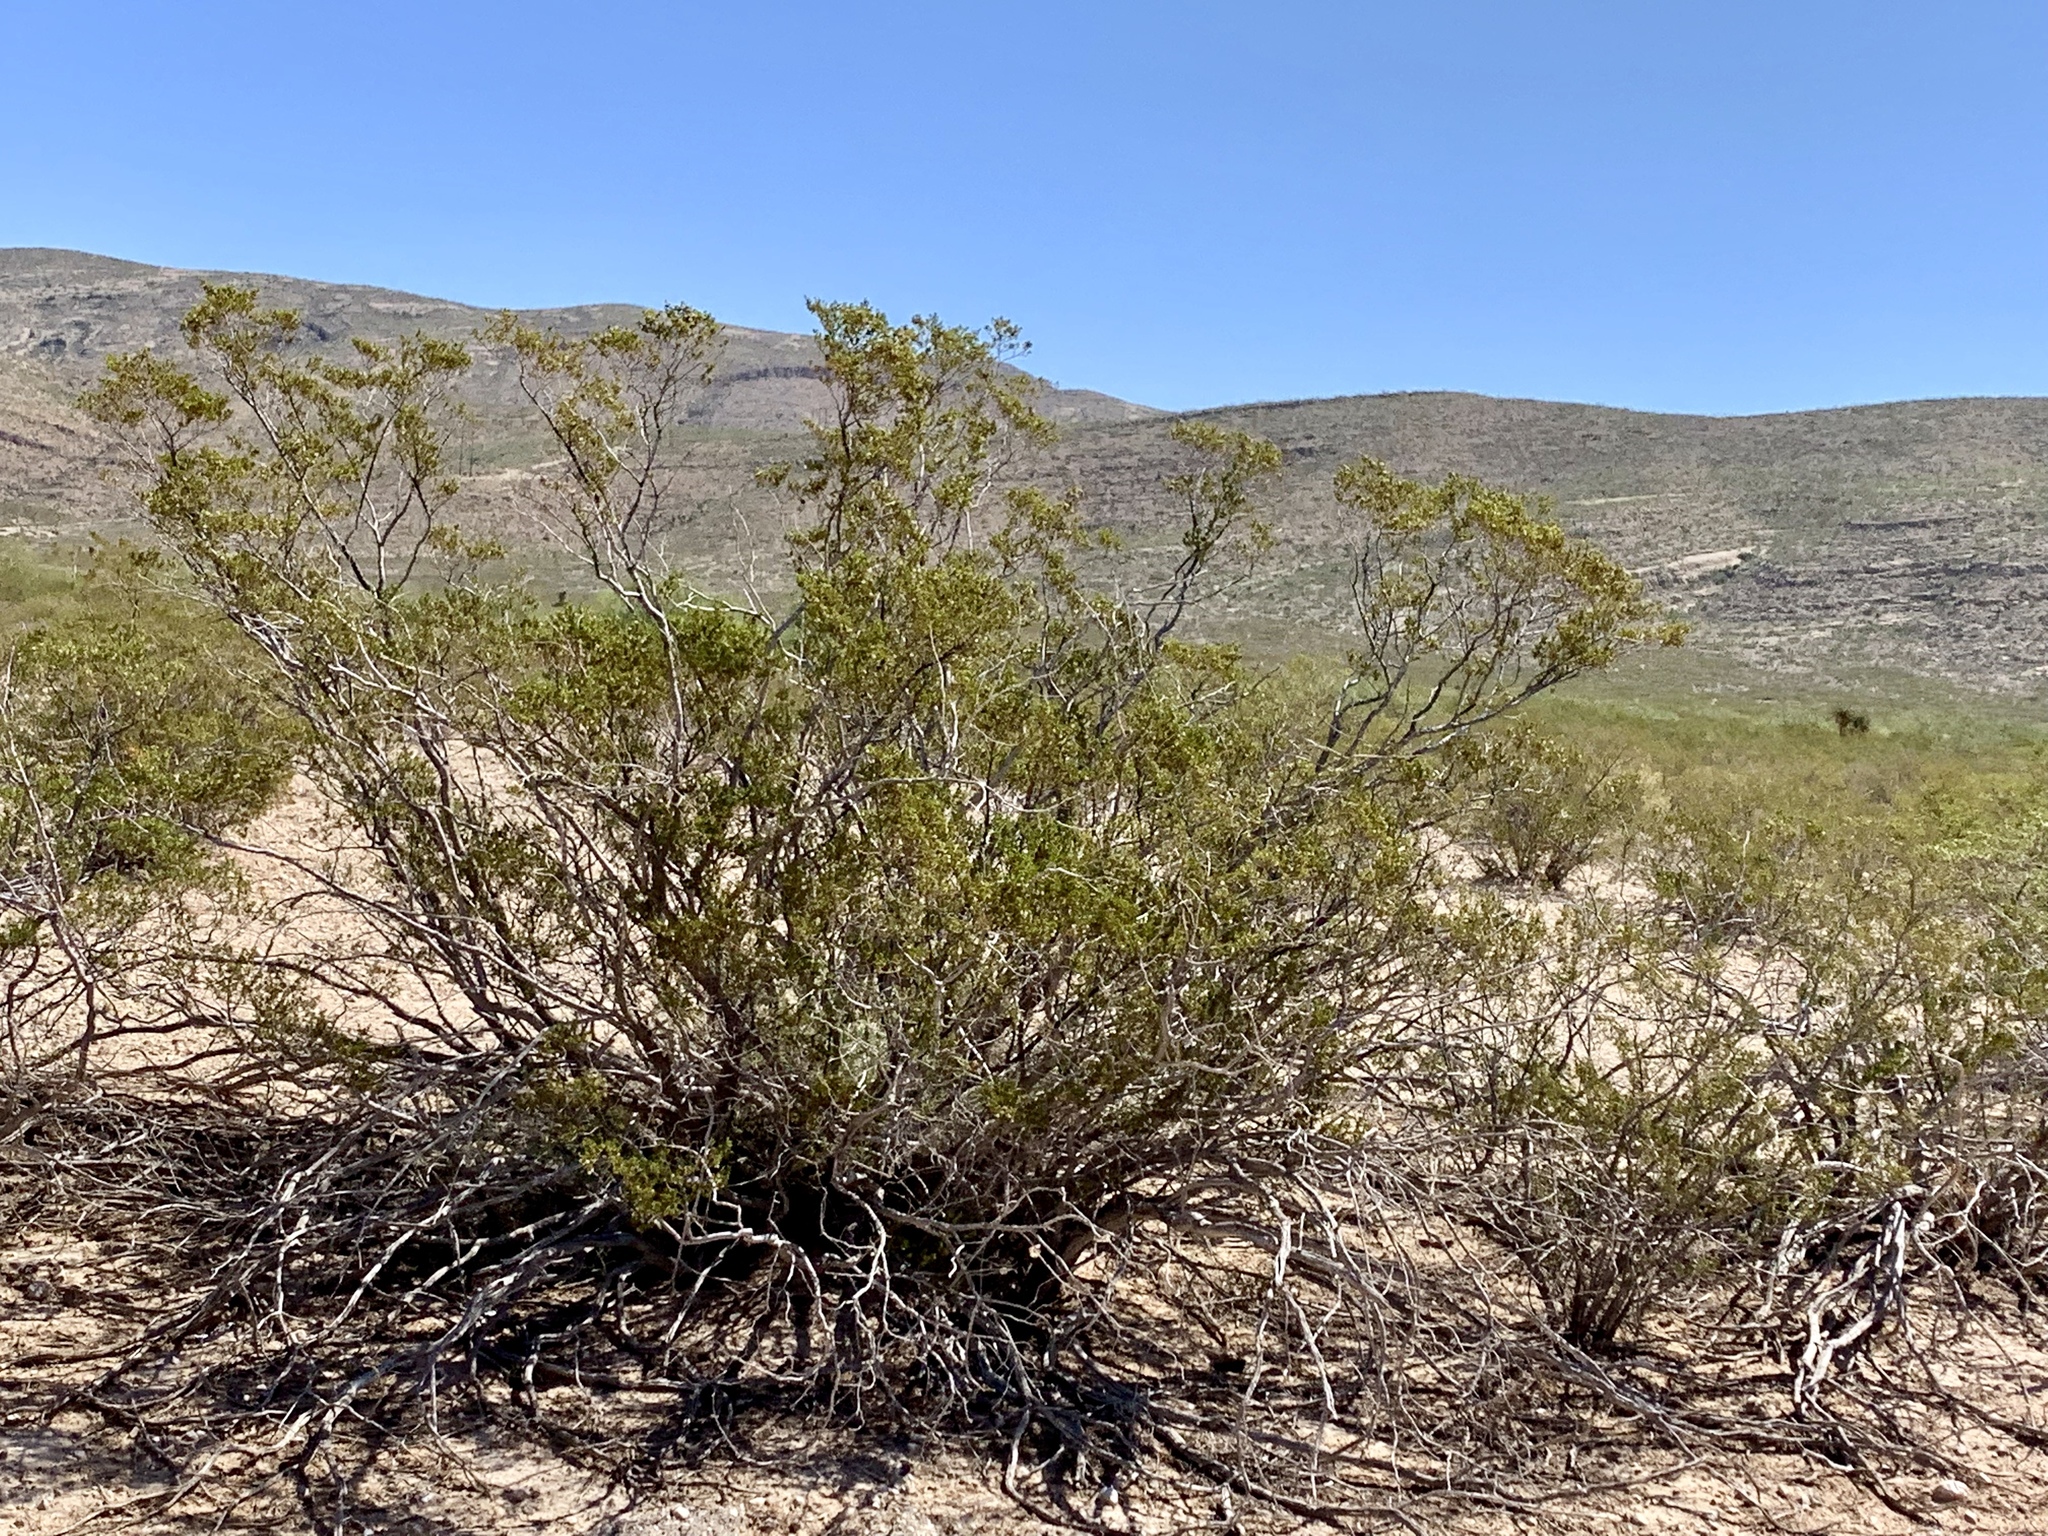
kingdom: Plantae
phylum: Tracheophyta
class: Magnoliopsida
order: Zygophyllales
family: Zygophyllaceae
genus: Larrea
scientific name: Larrea tridentata
